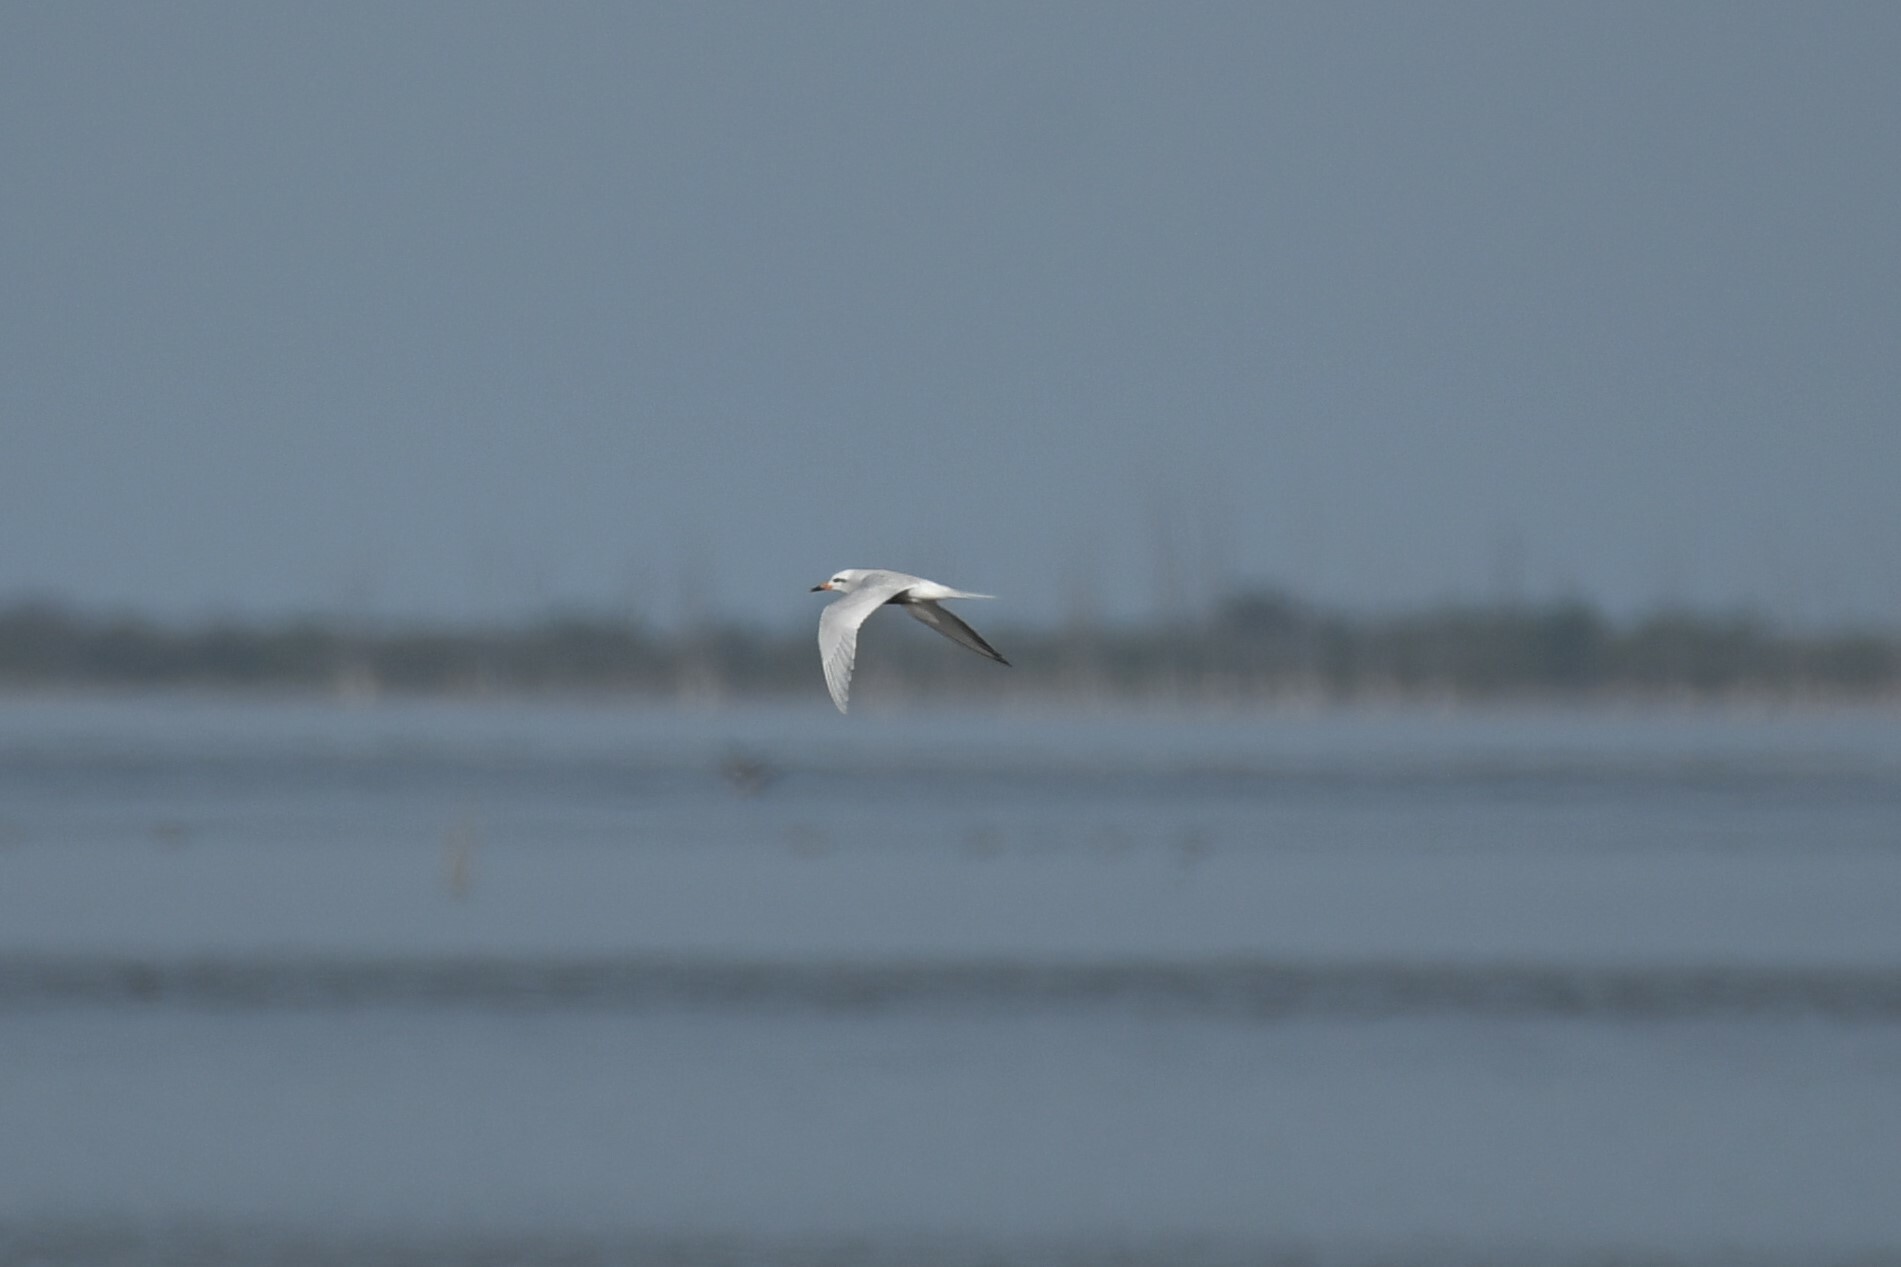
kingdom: Animalia
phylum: Chordata
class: Aves
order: Charadriiformes
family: Laridae
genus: Sterna
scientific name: Sterna trudeaui
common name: Snowy-crowned tern
